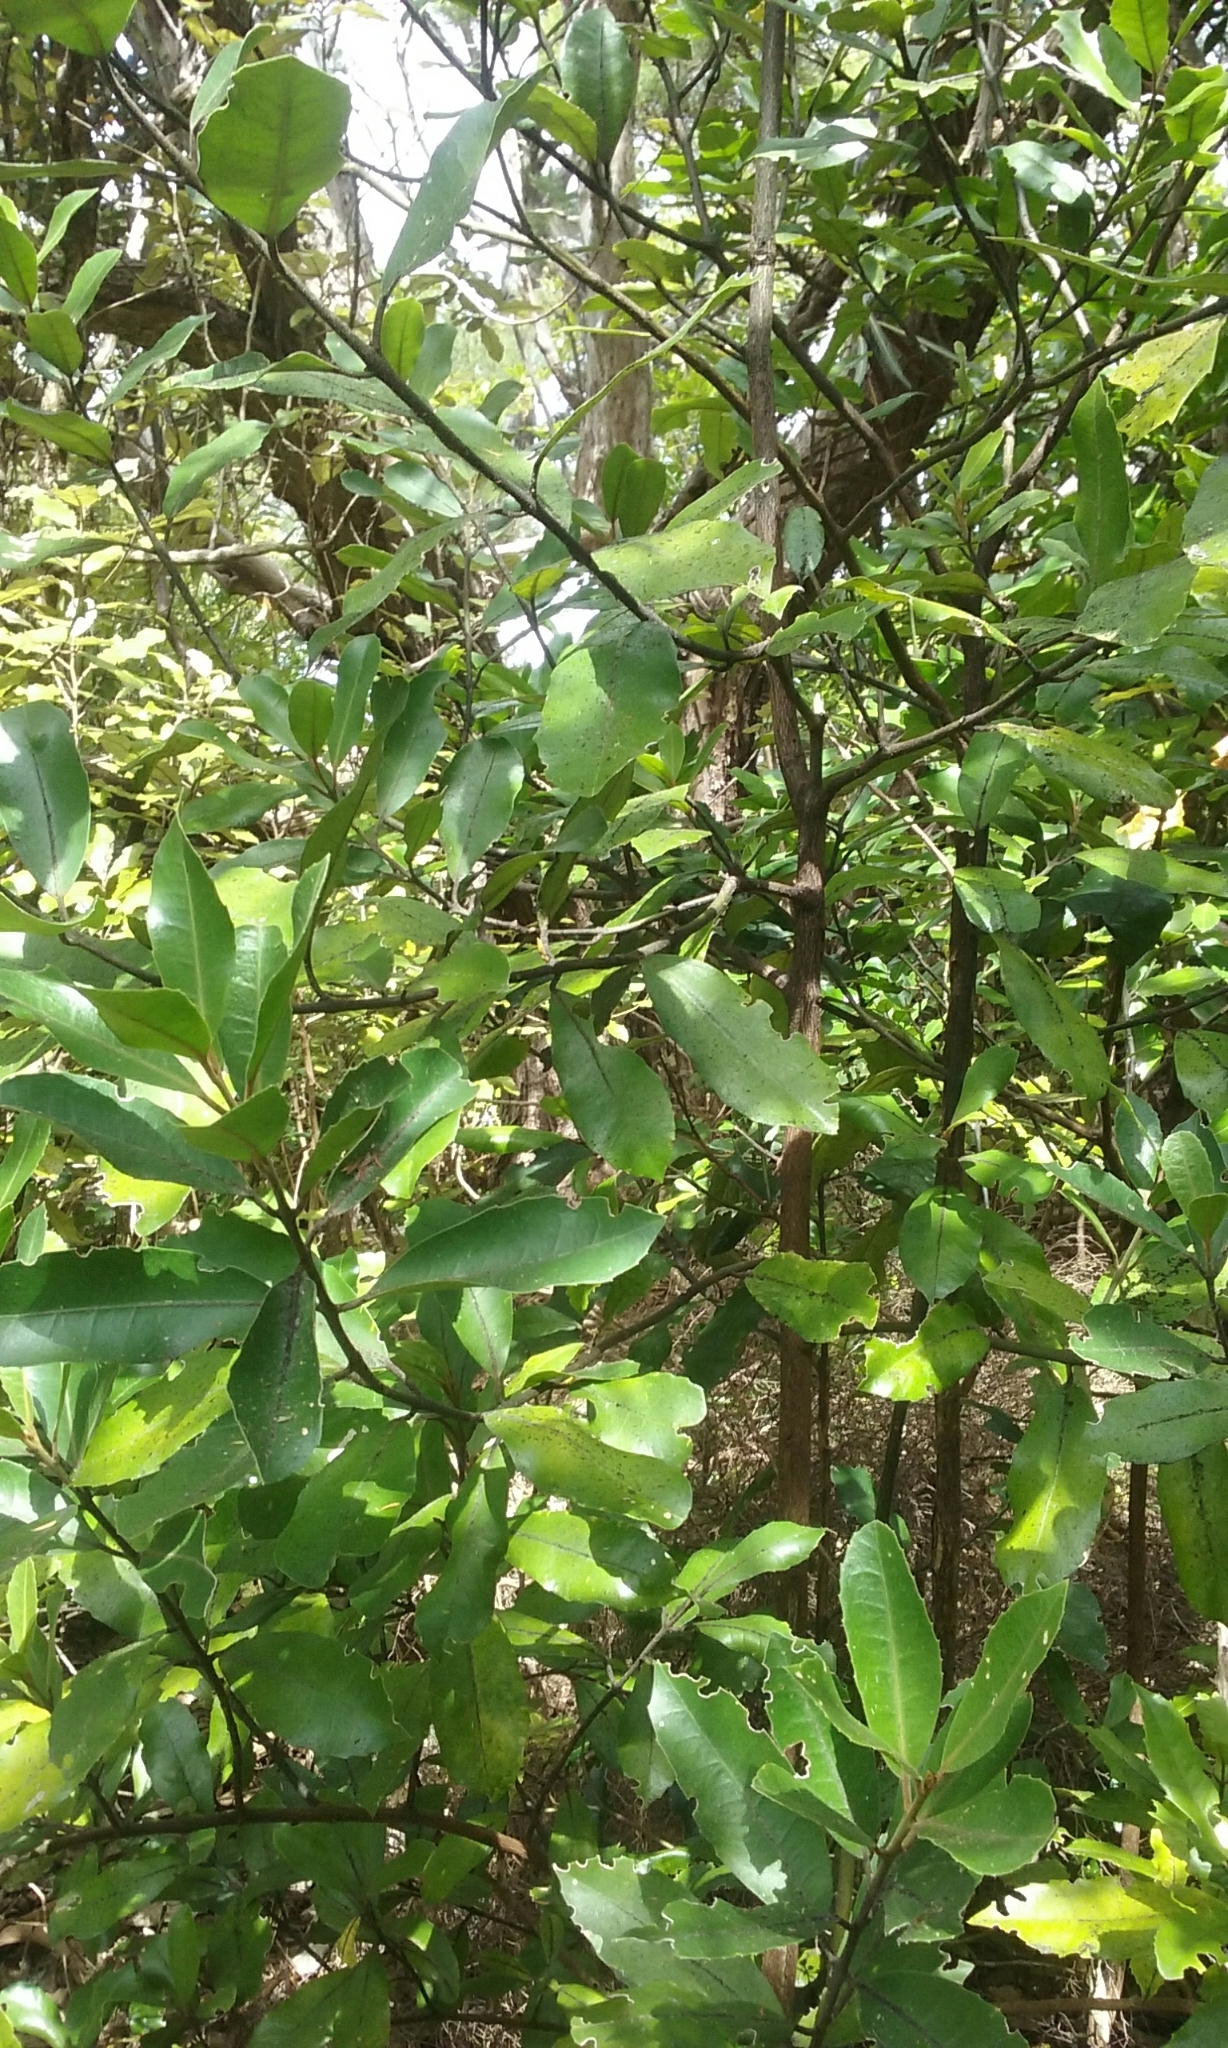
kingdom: Plantae
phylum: Tracheophyta
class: Magnoliopsida
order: Laurales
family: Monimiaceae
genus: Hedycarya
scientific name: Hedycarya arborea
